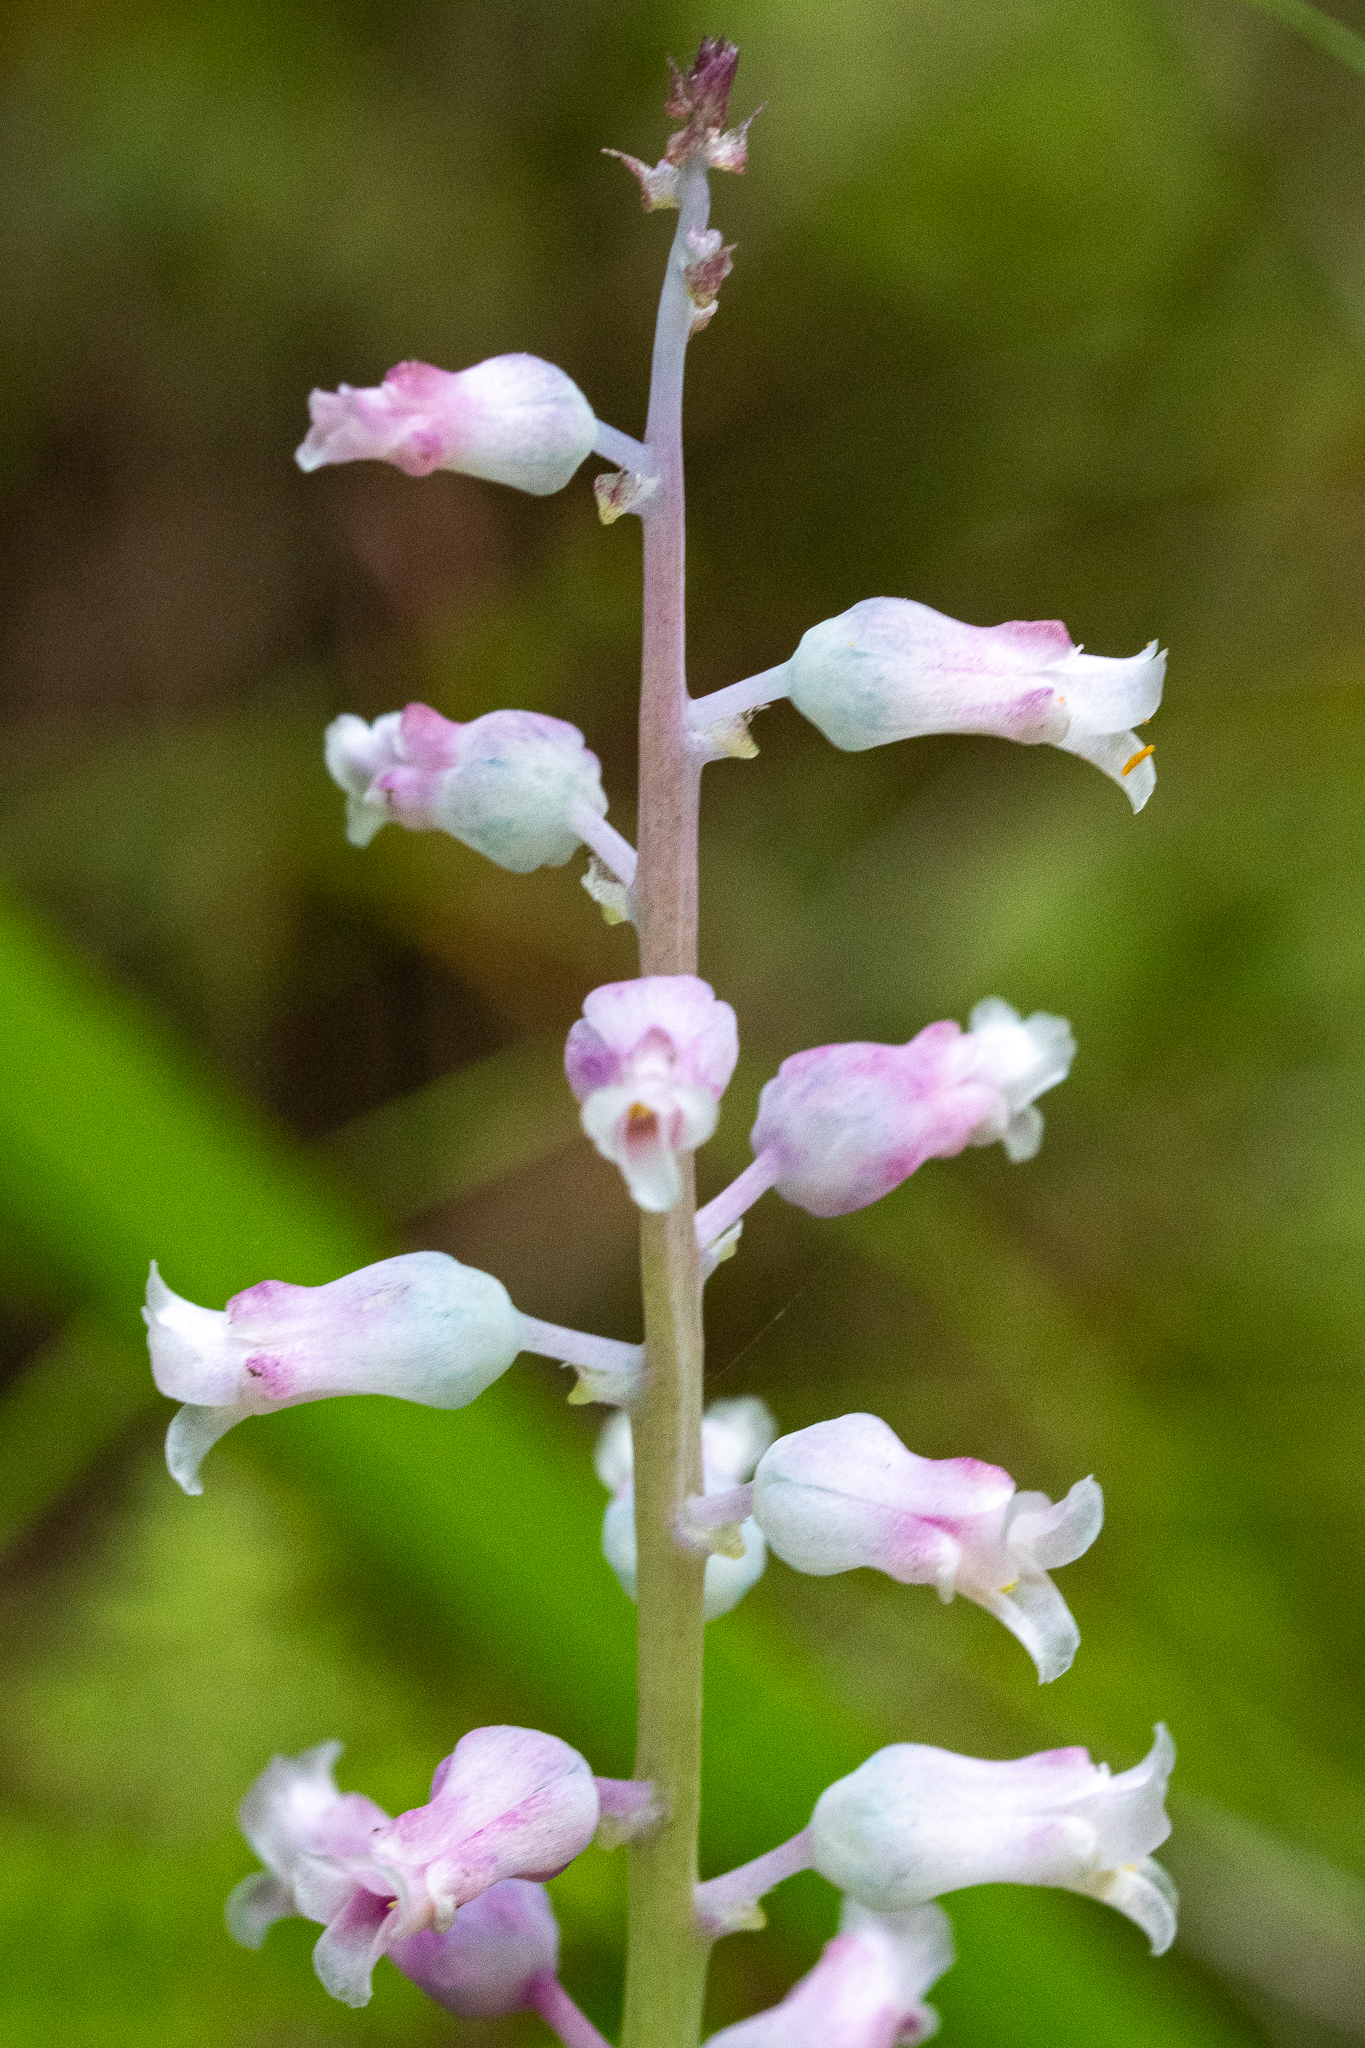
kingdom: Plantae
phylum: Tracheophyta
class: Liliopsida
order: Asparagales
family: Asparagaceae
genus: Lachenalia
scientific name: Lachenalia rosea
